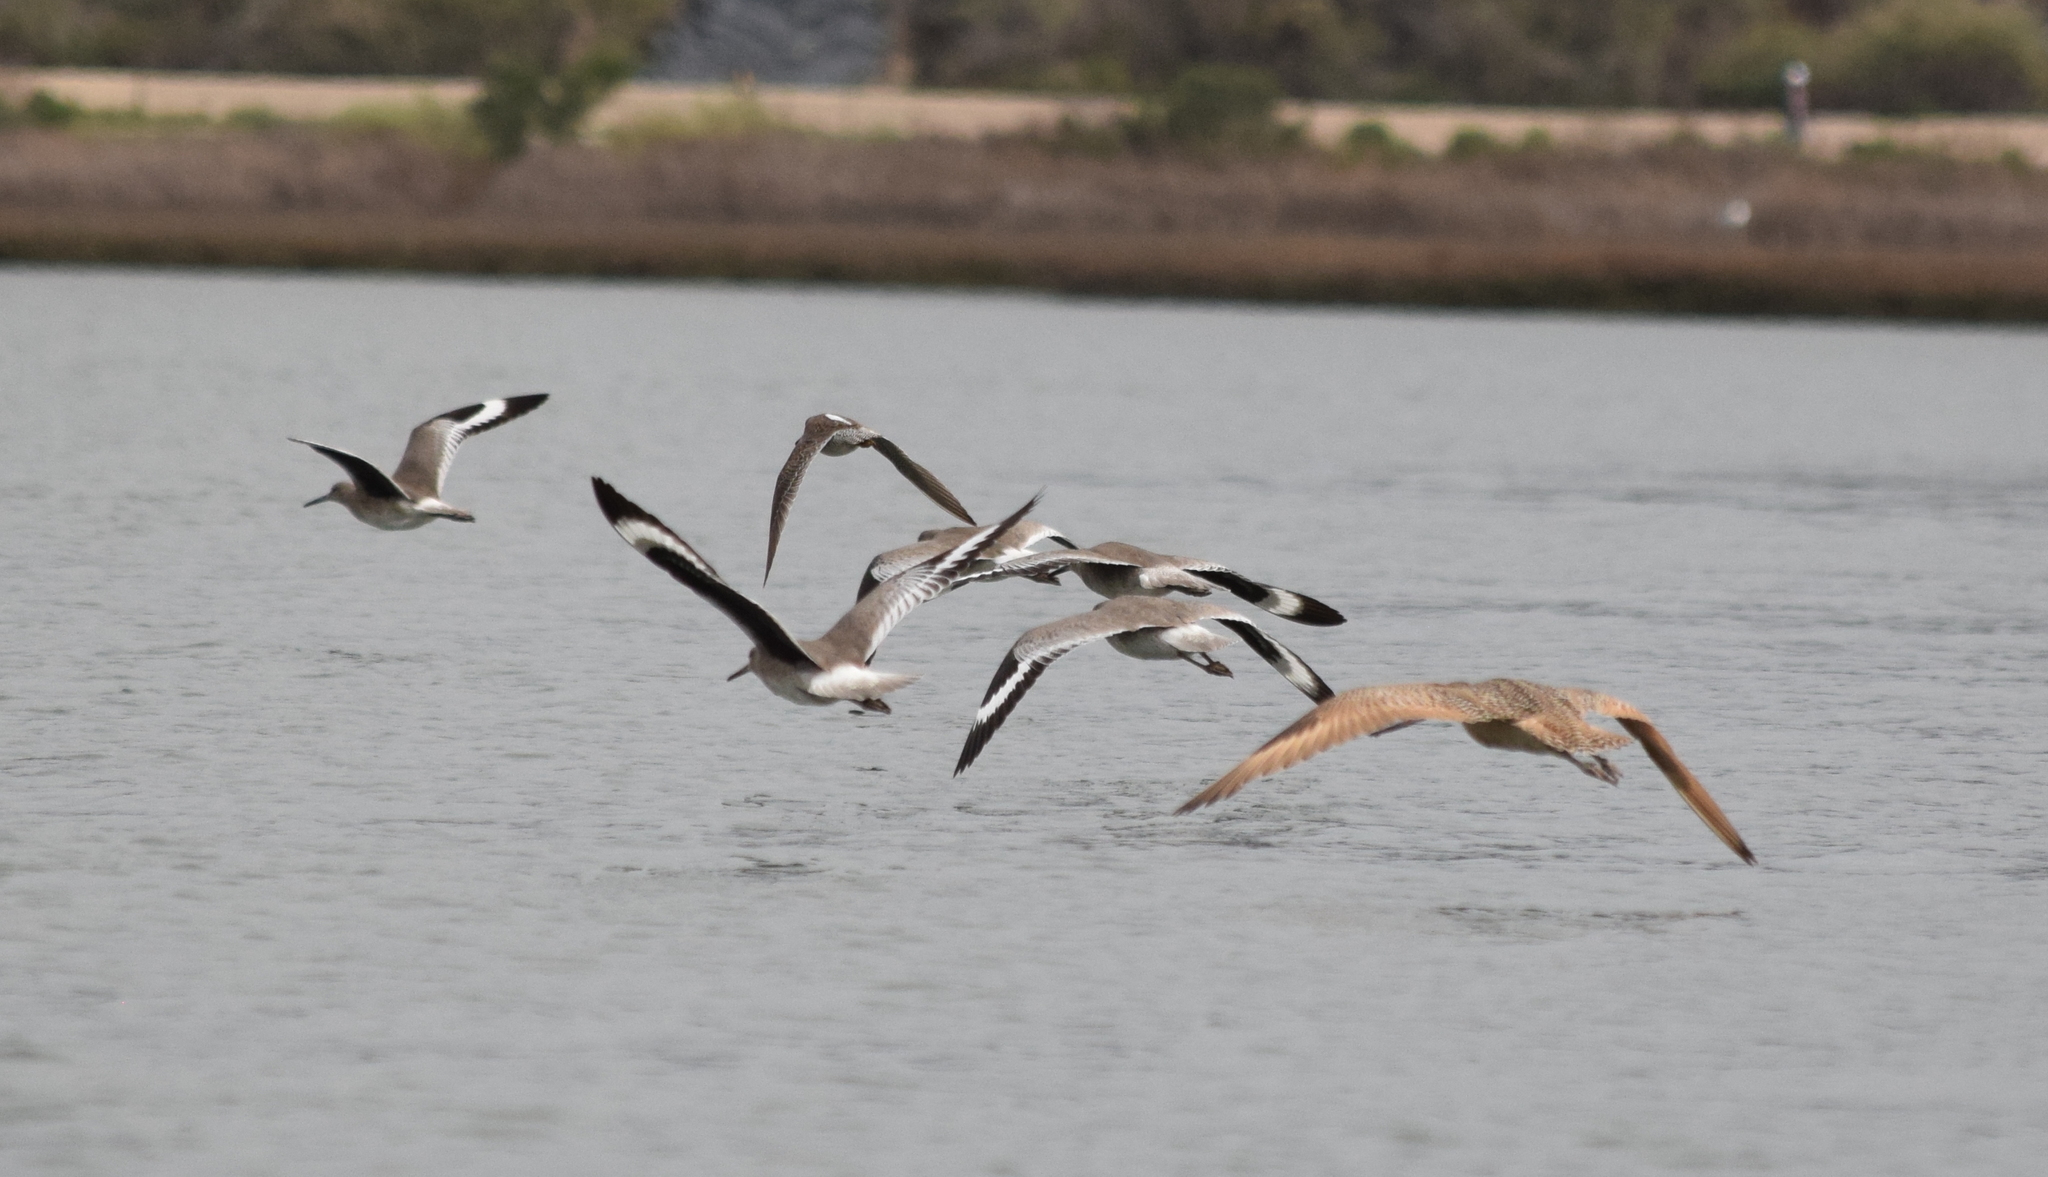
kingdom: Animalia
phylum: Chordata
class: Aves
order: Charadriiformes
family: Scolopacidae
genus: Limnodromus
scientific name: Limnodromus
